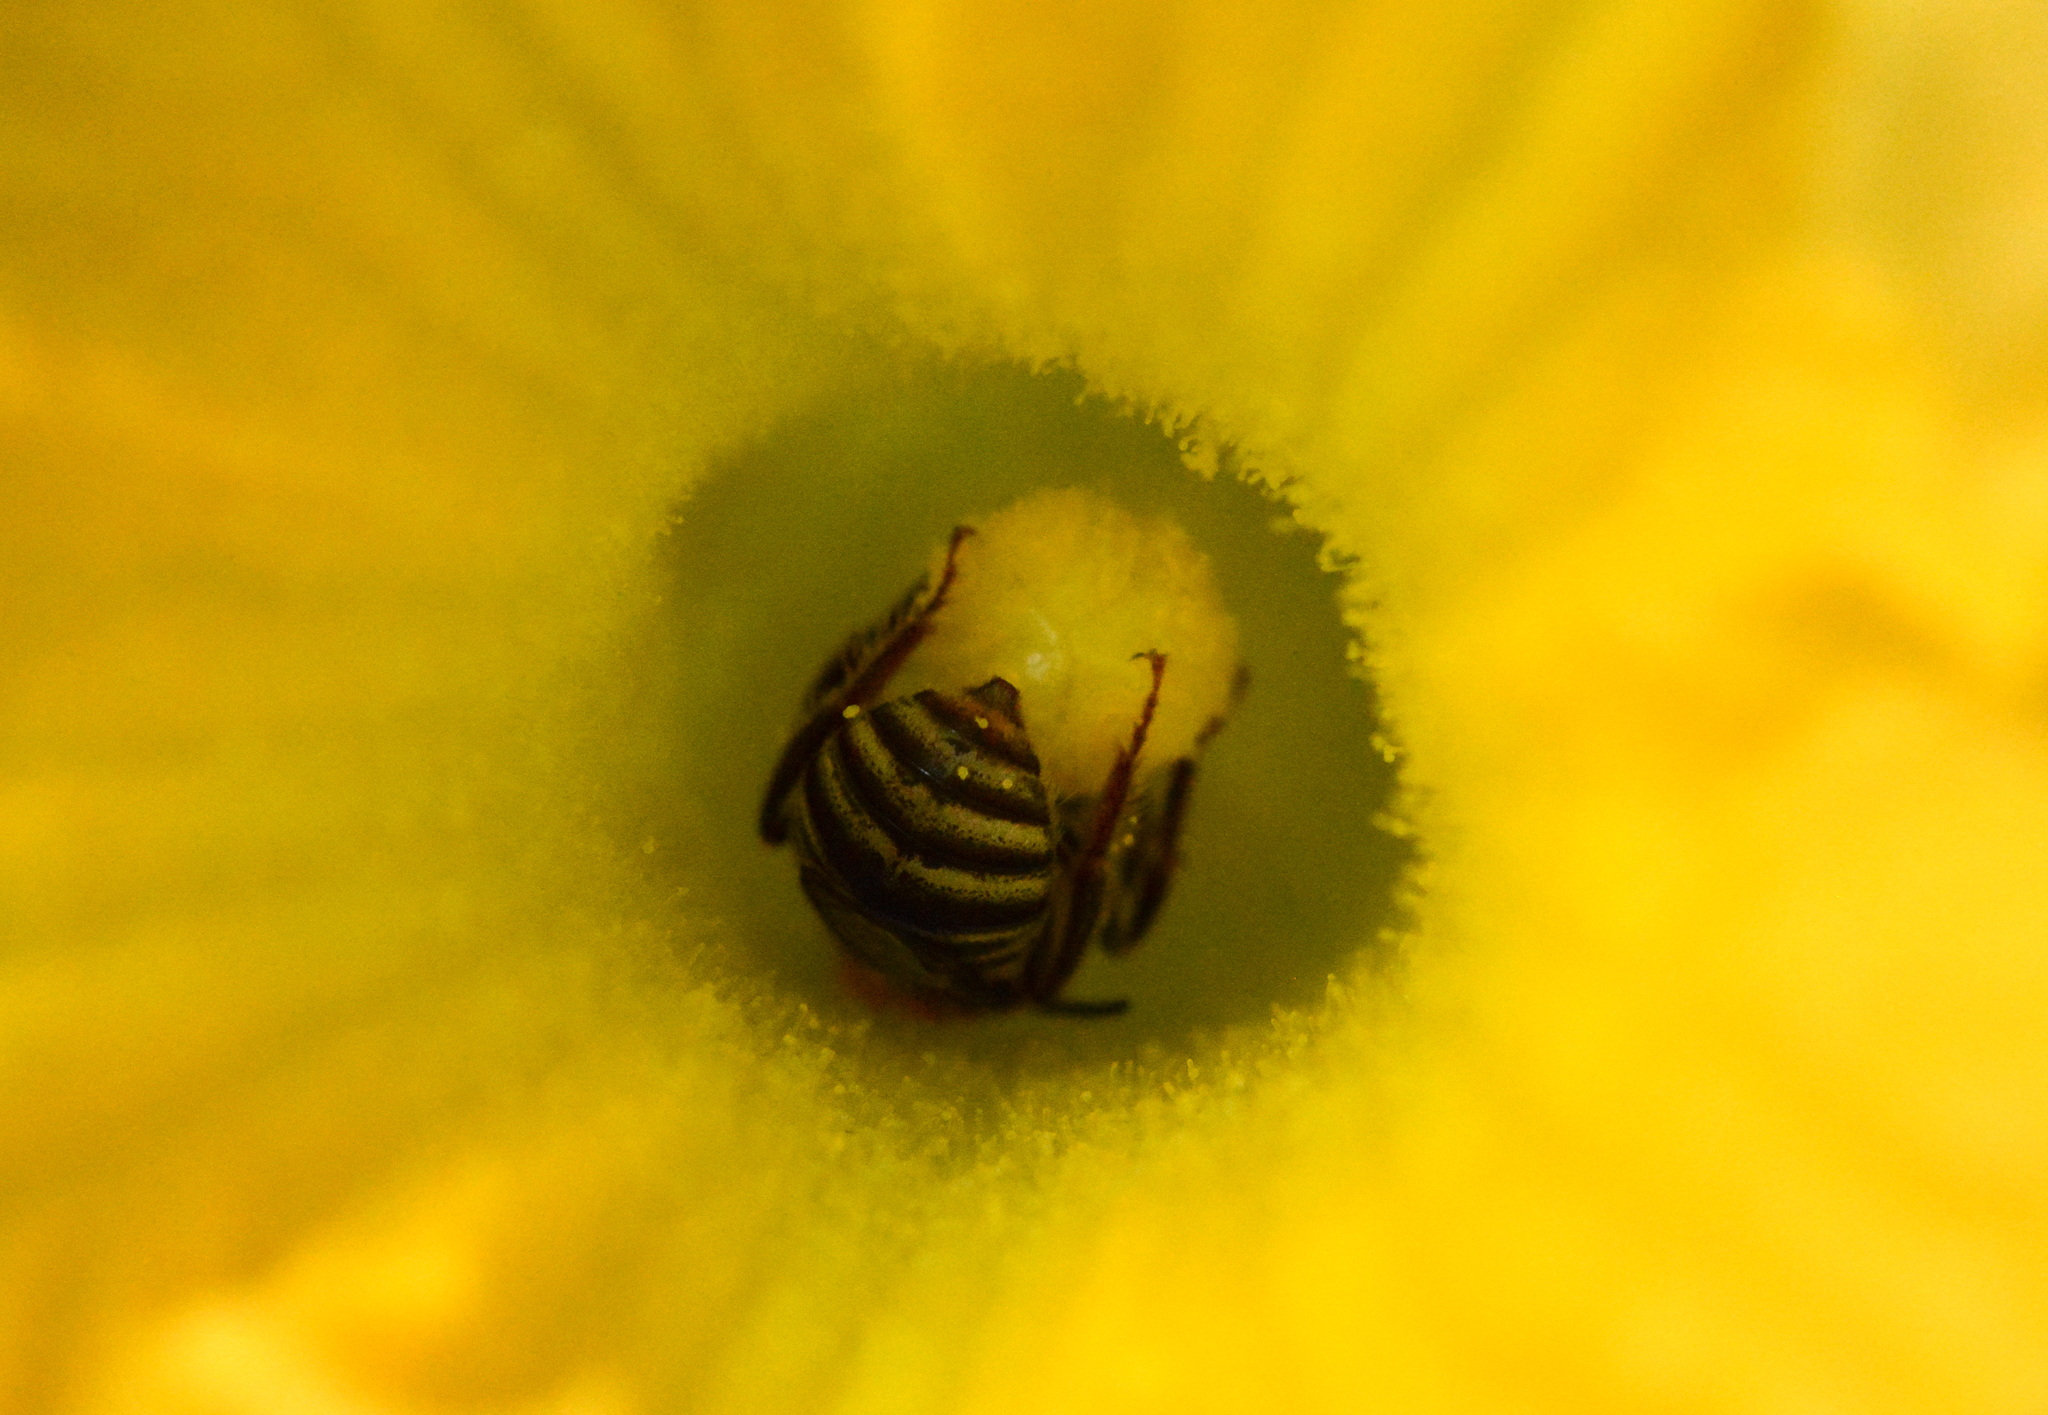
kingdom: Animalia
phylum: Arthropoda
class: Insecta
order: Hymenoptera
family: Apidae
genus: Peponapis
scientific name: Peponapis pruinosa
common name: Pruinose squash bee
